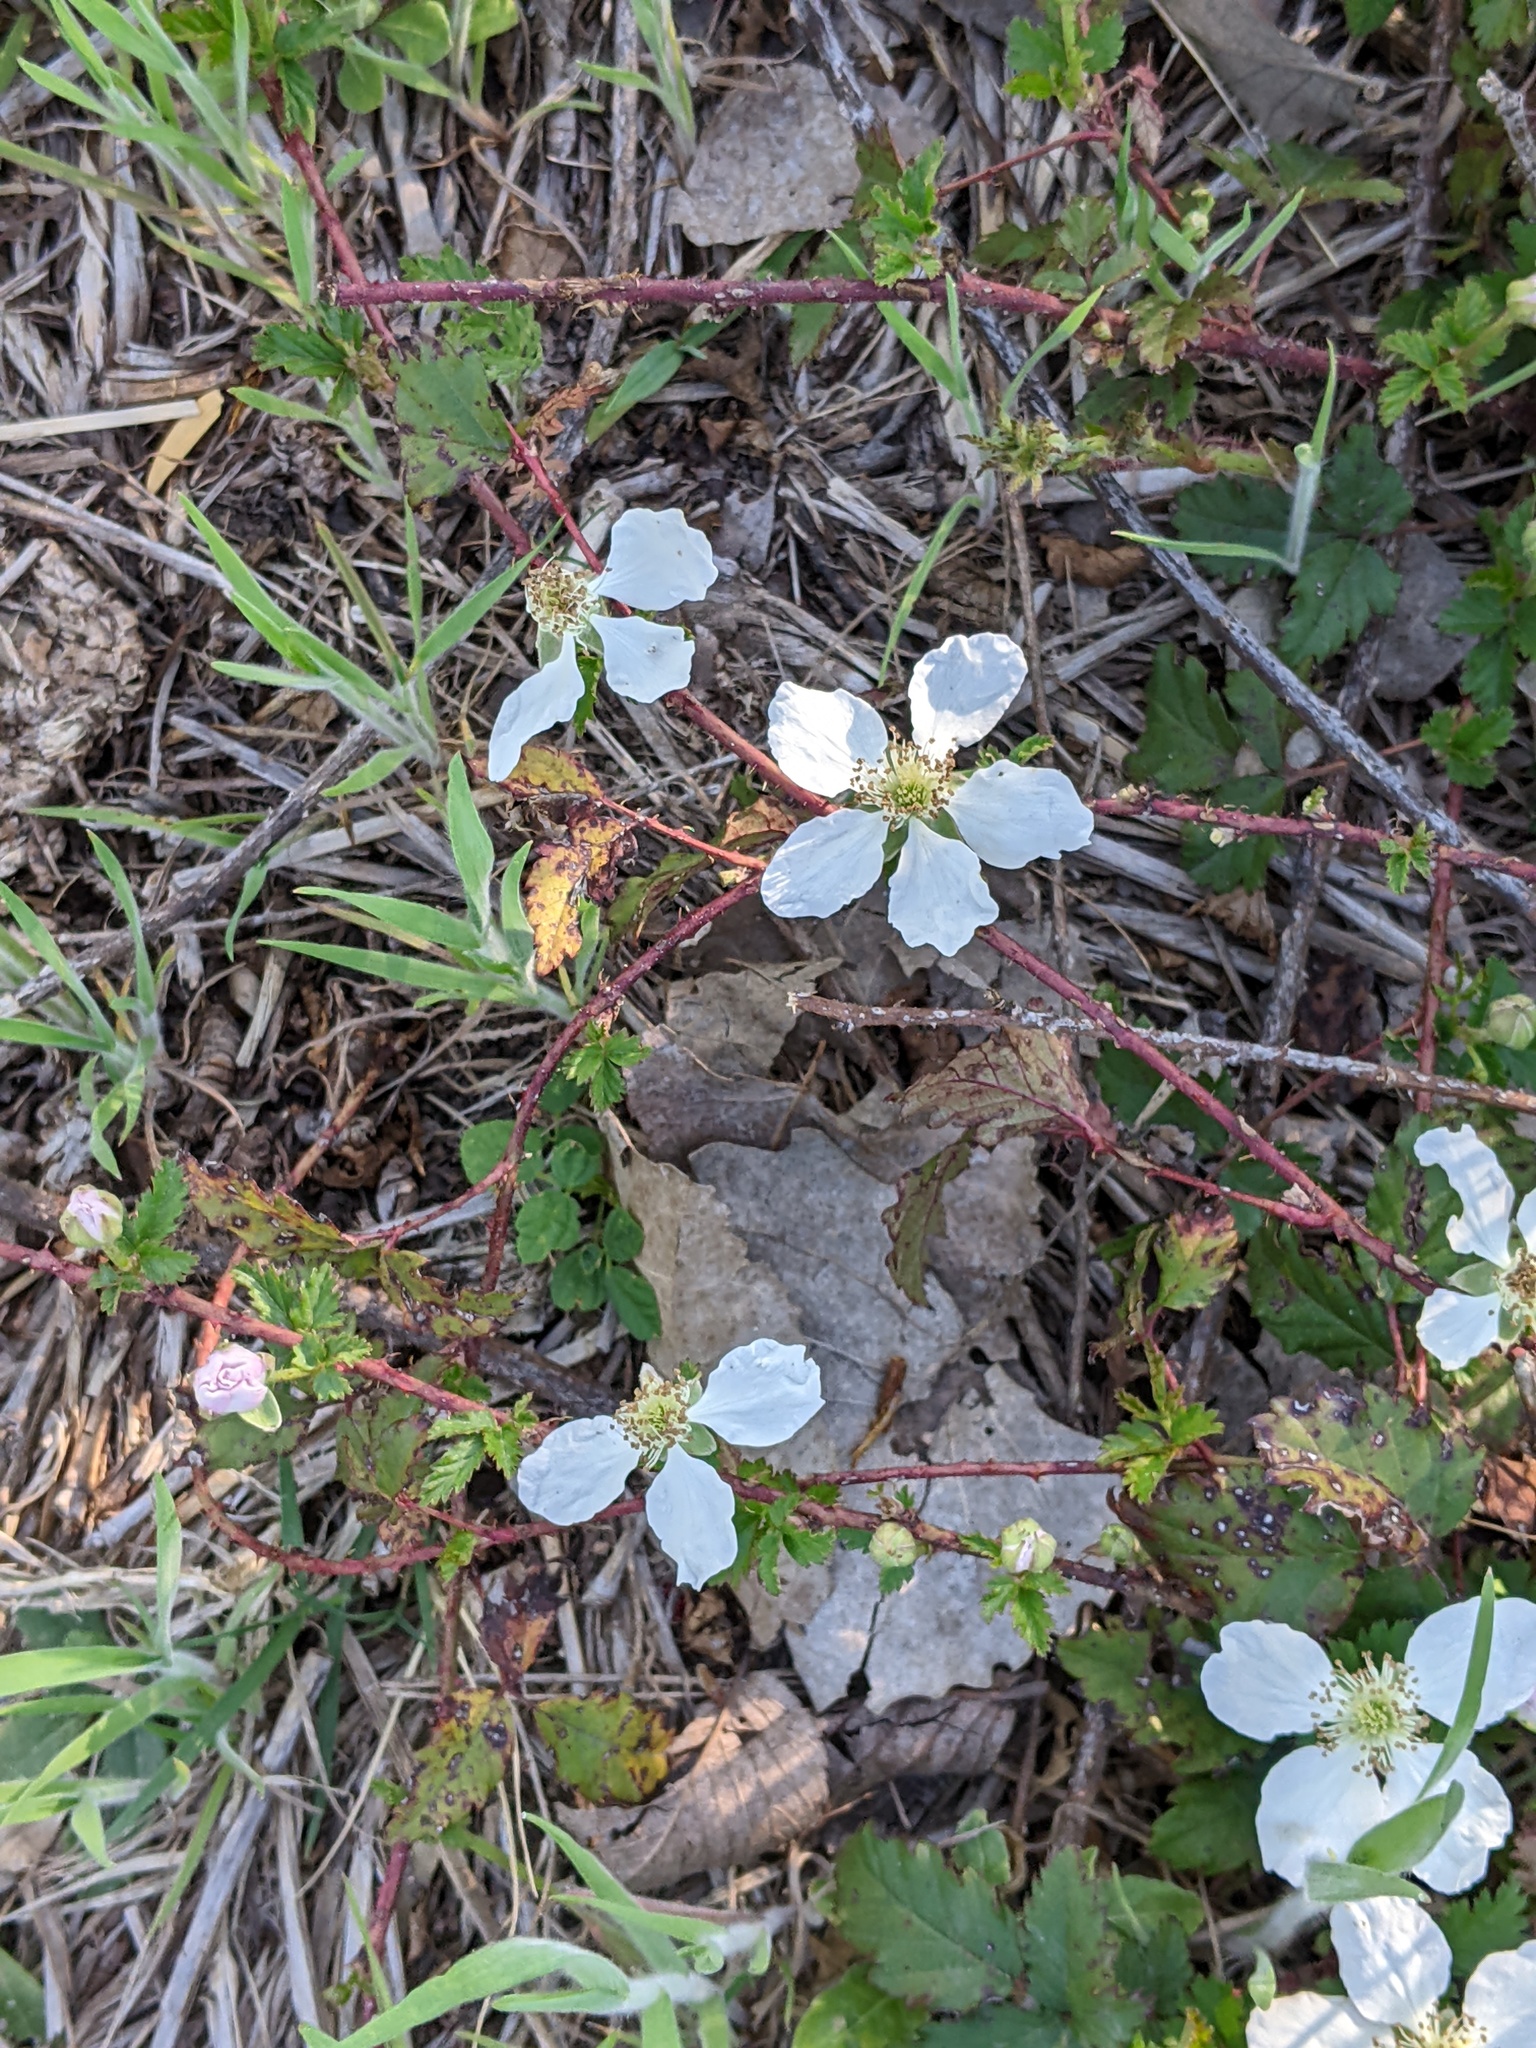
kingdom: Plantae
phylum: Tracheophyta
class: Magnoliopsida
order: Rosales
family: Rosaceae
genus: Rubus
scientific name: Rubus trivialis
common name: Southern dewberry
